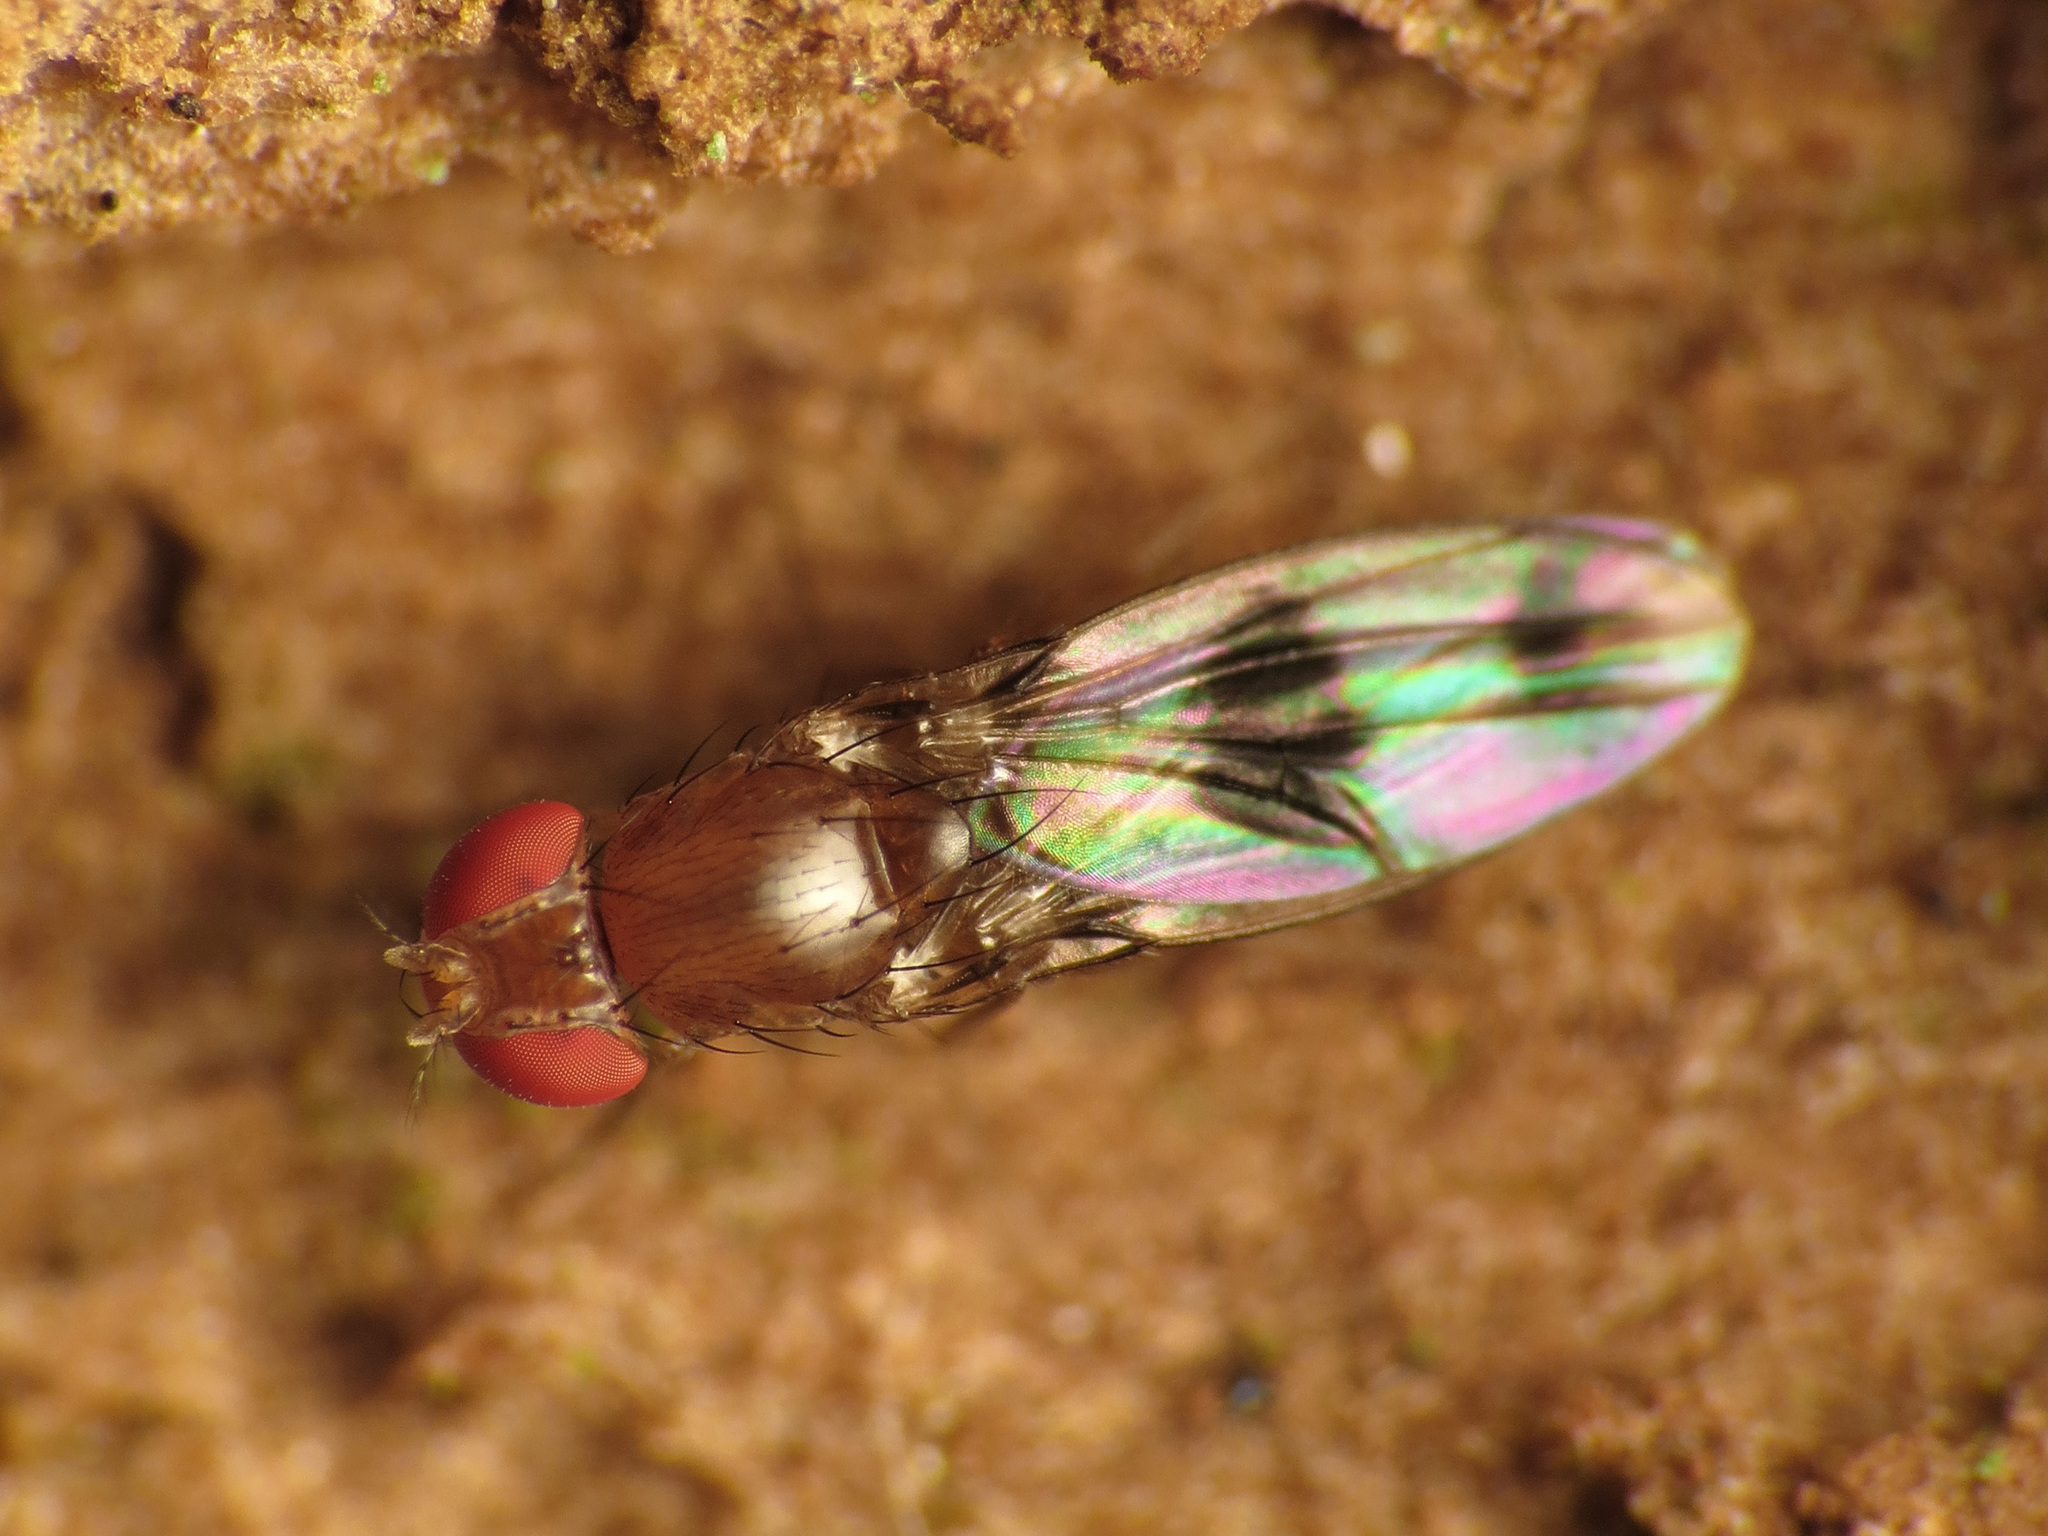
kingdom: Animalia
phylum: Arthropoda
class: Insecta
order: Diptera
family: Drosophilidae
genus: Chymomyza
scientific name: Chymomyza amoena
